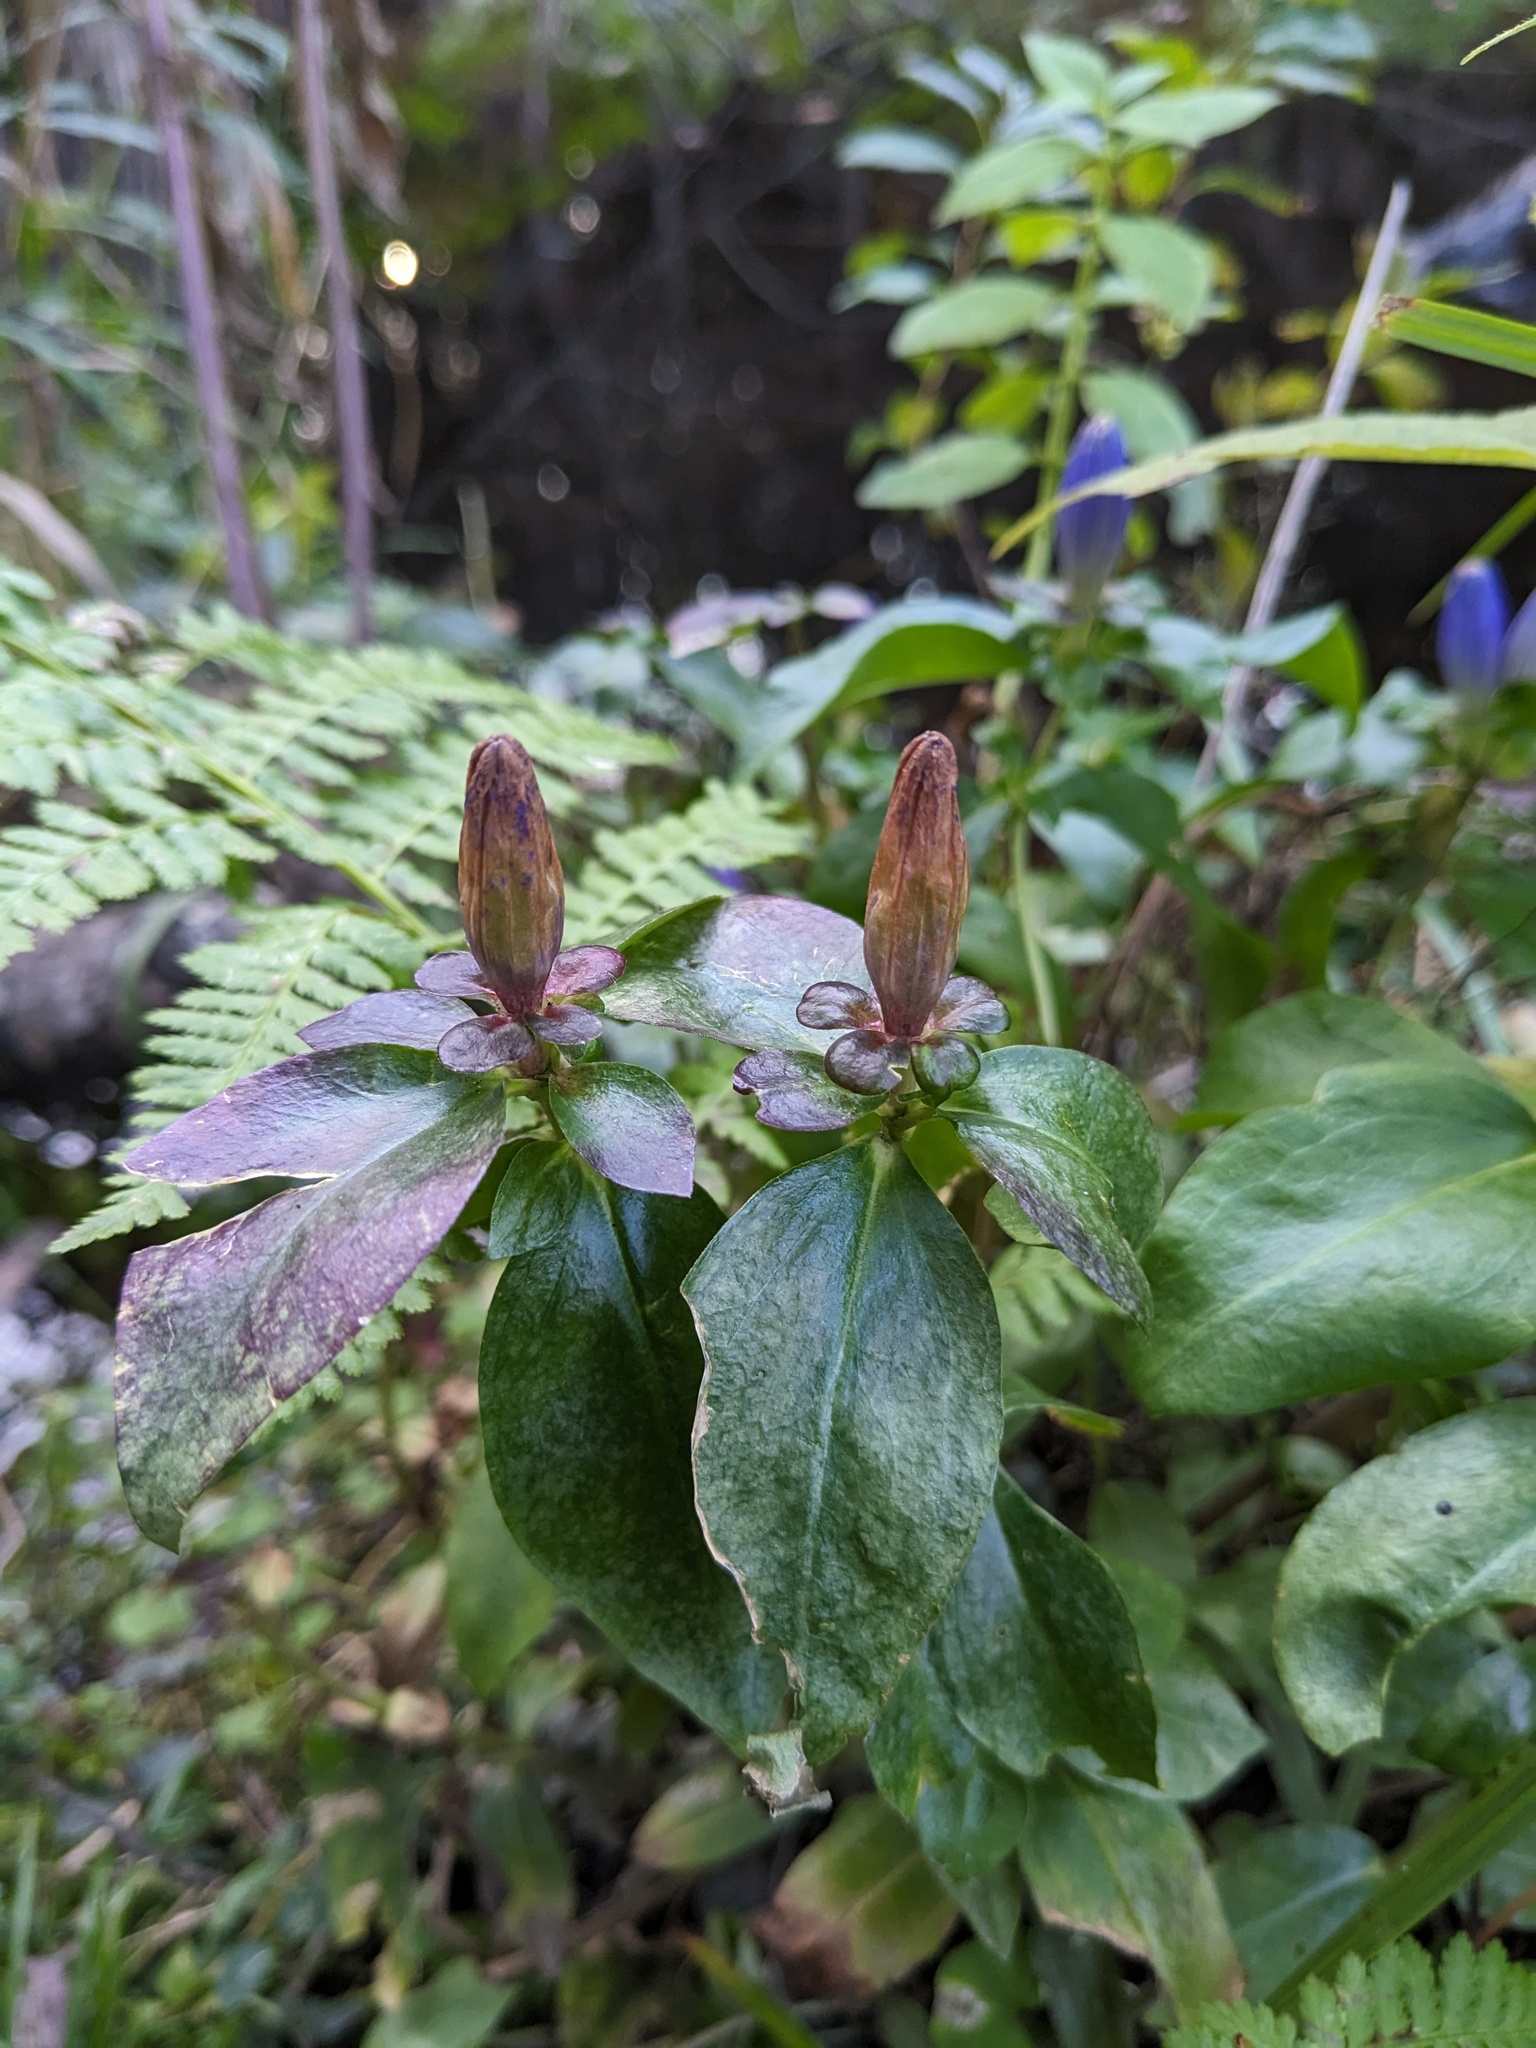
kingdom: Plantae
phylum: Tracheophyta
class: Magnoliopsida
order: Gentianales
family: Gentianaceae
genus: Gentiana
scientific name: Gentiana clausa
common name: Blind gentian
